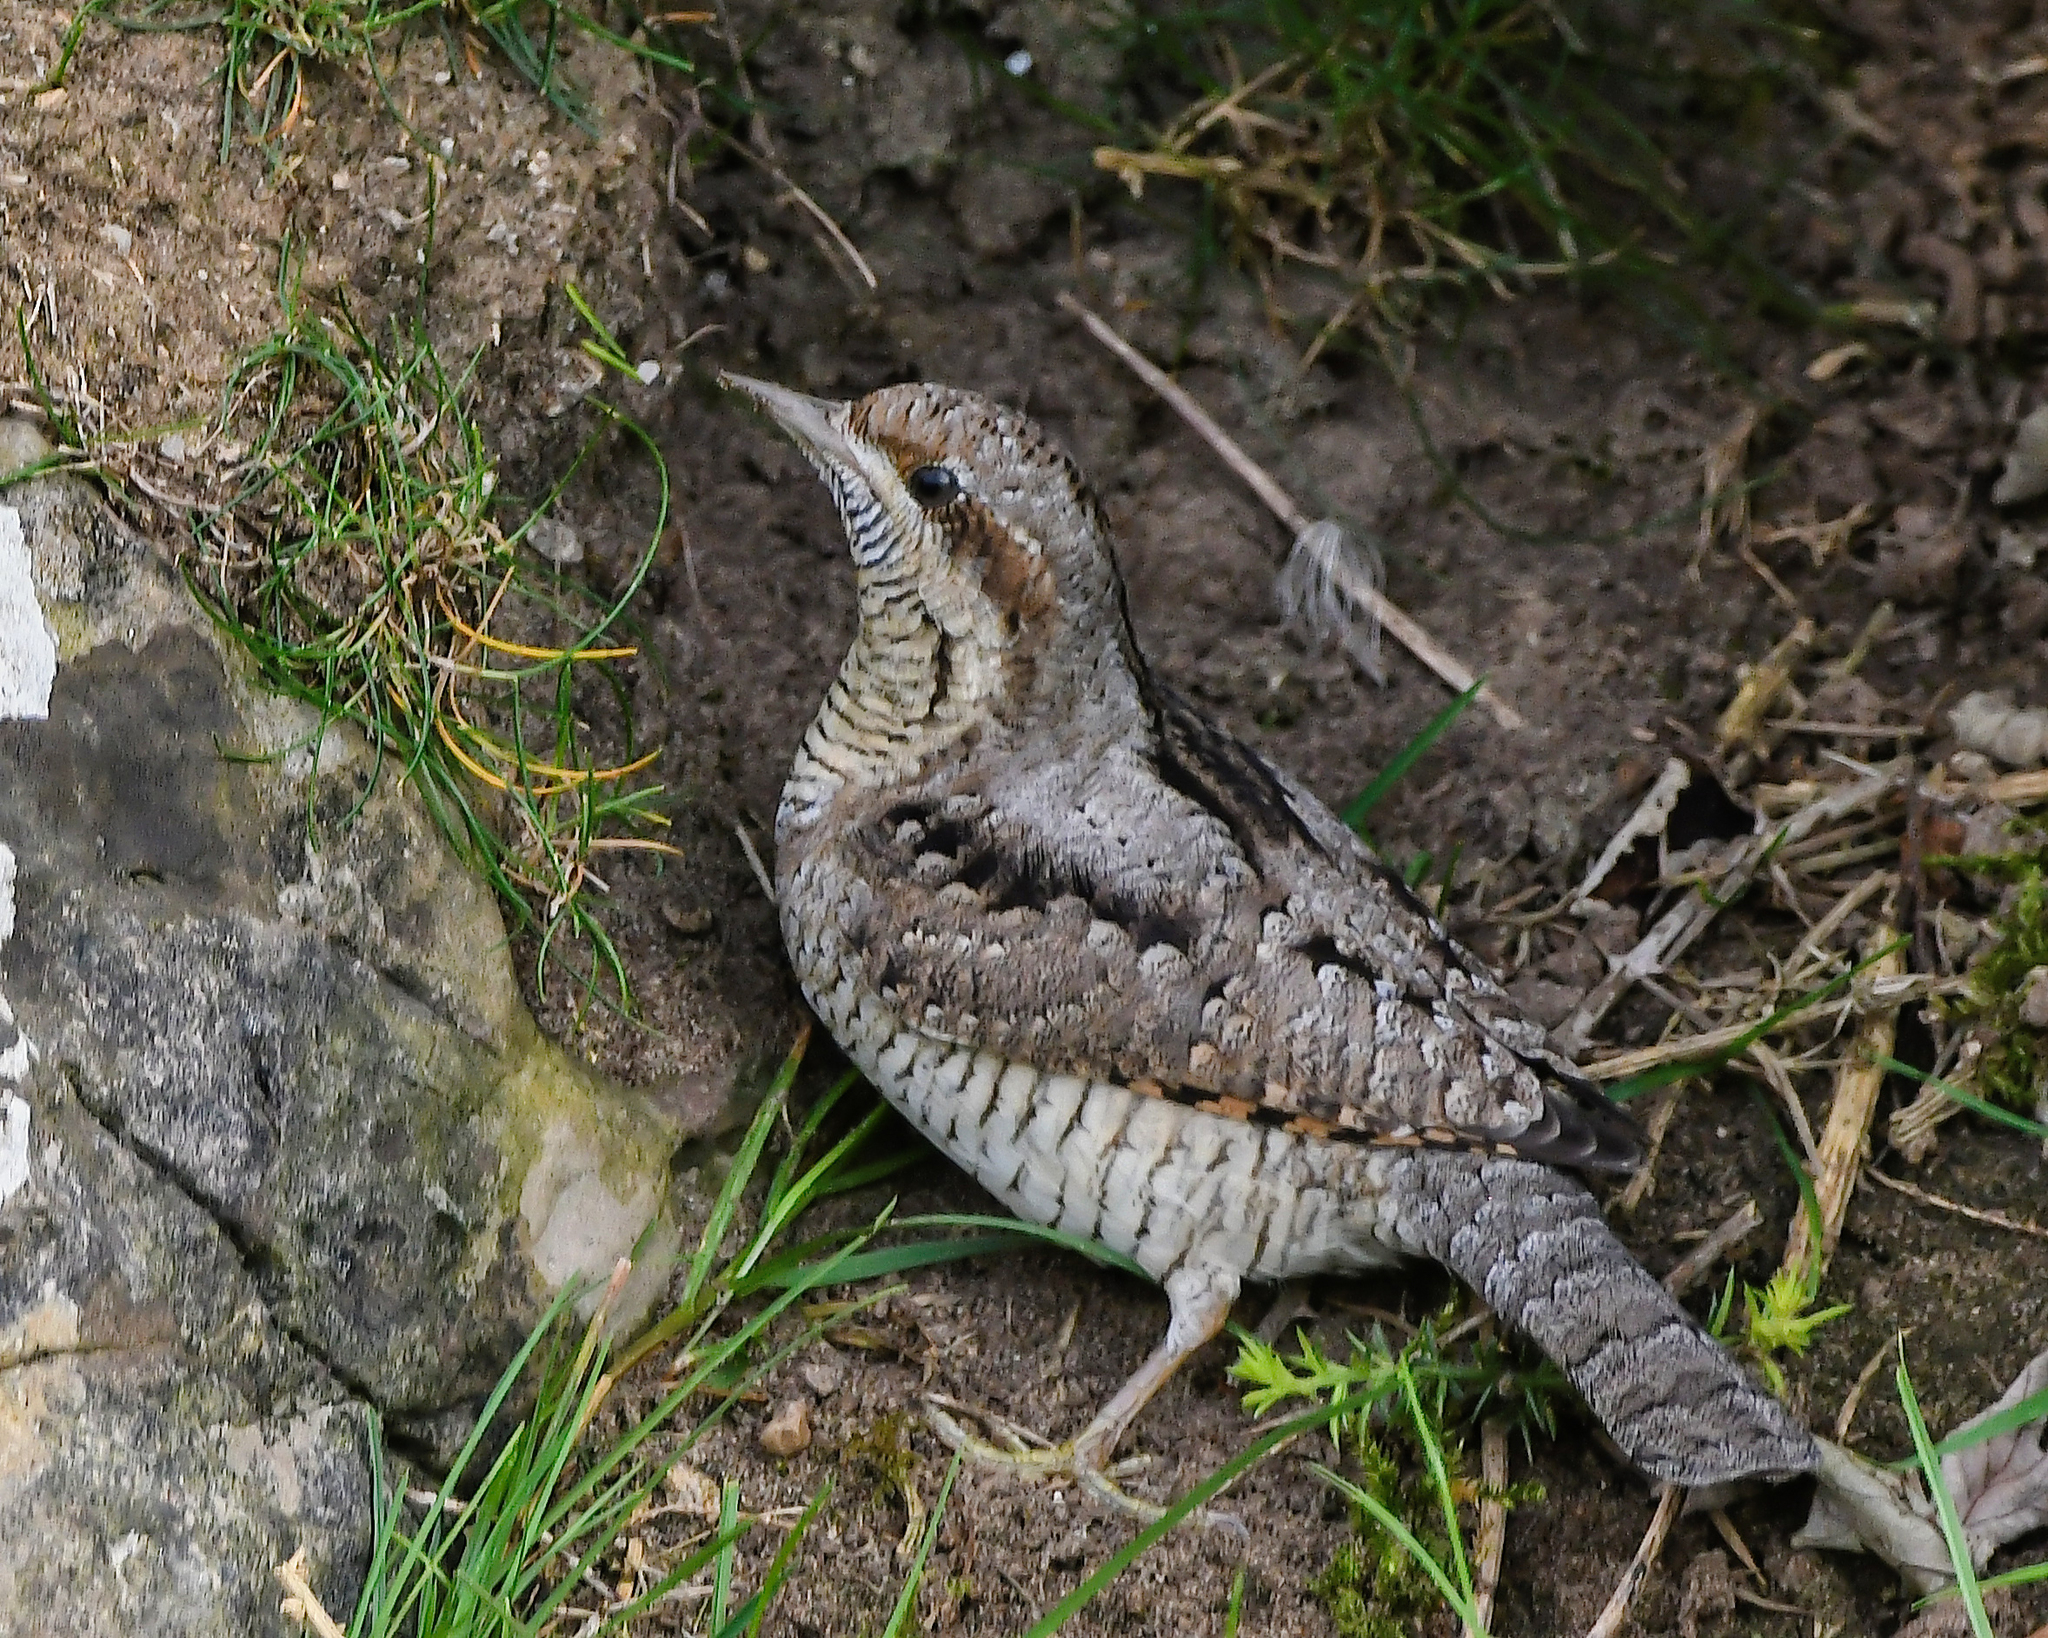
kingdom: Animalia
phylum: Chordata
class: Aves
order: Piciformes
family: Picidae
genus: Jynx
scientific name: Jynx torquilla
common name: Eurasian wryneck
